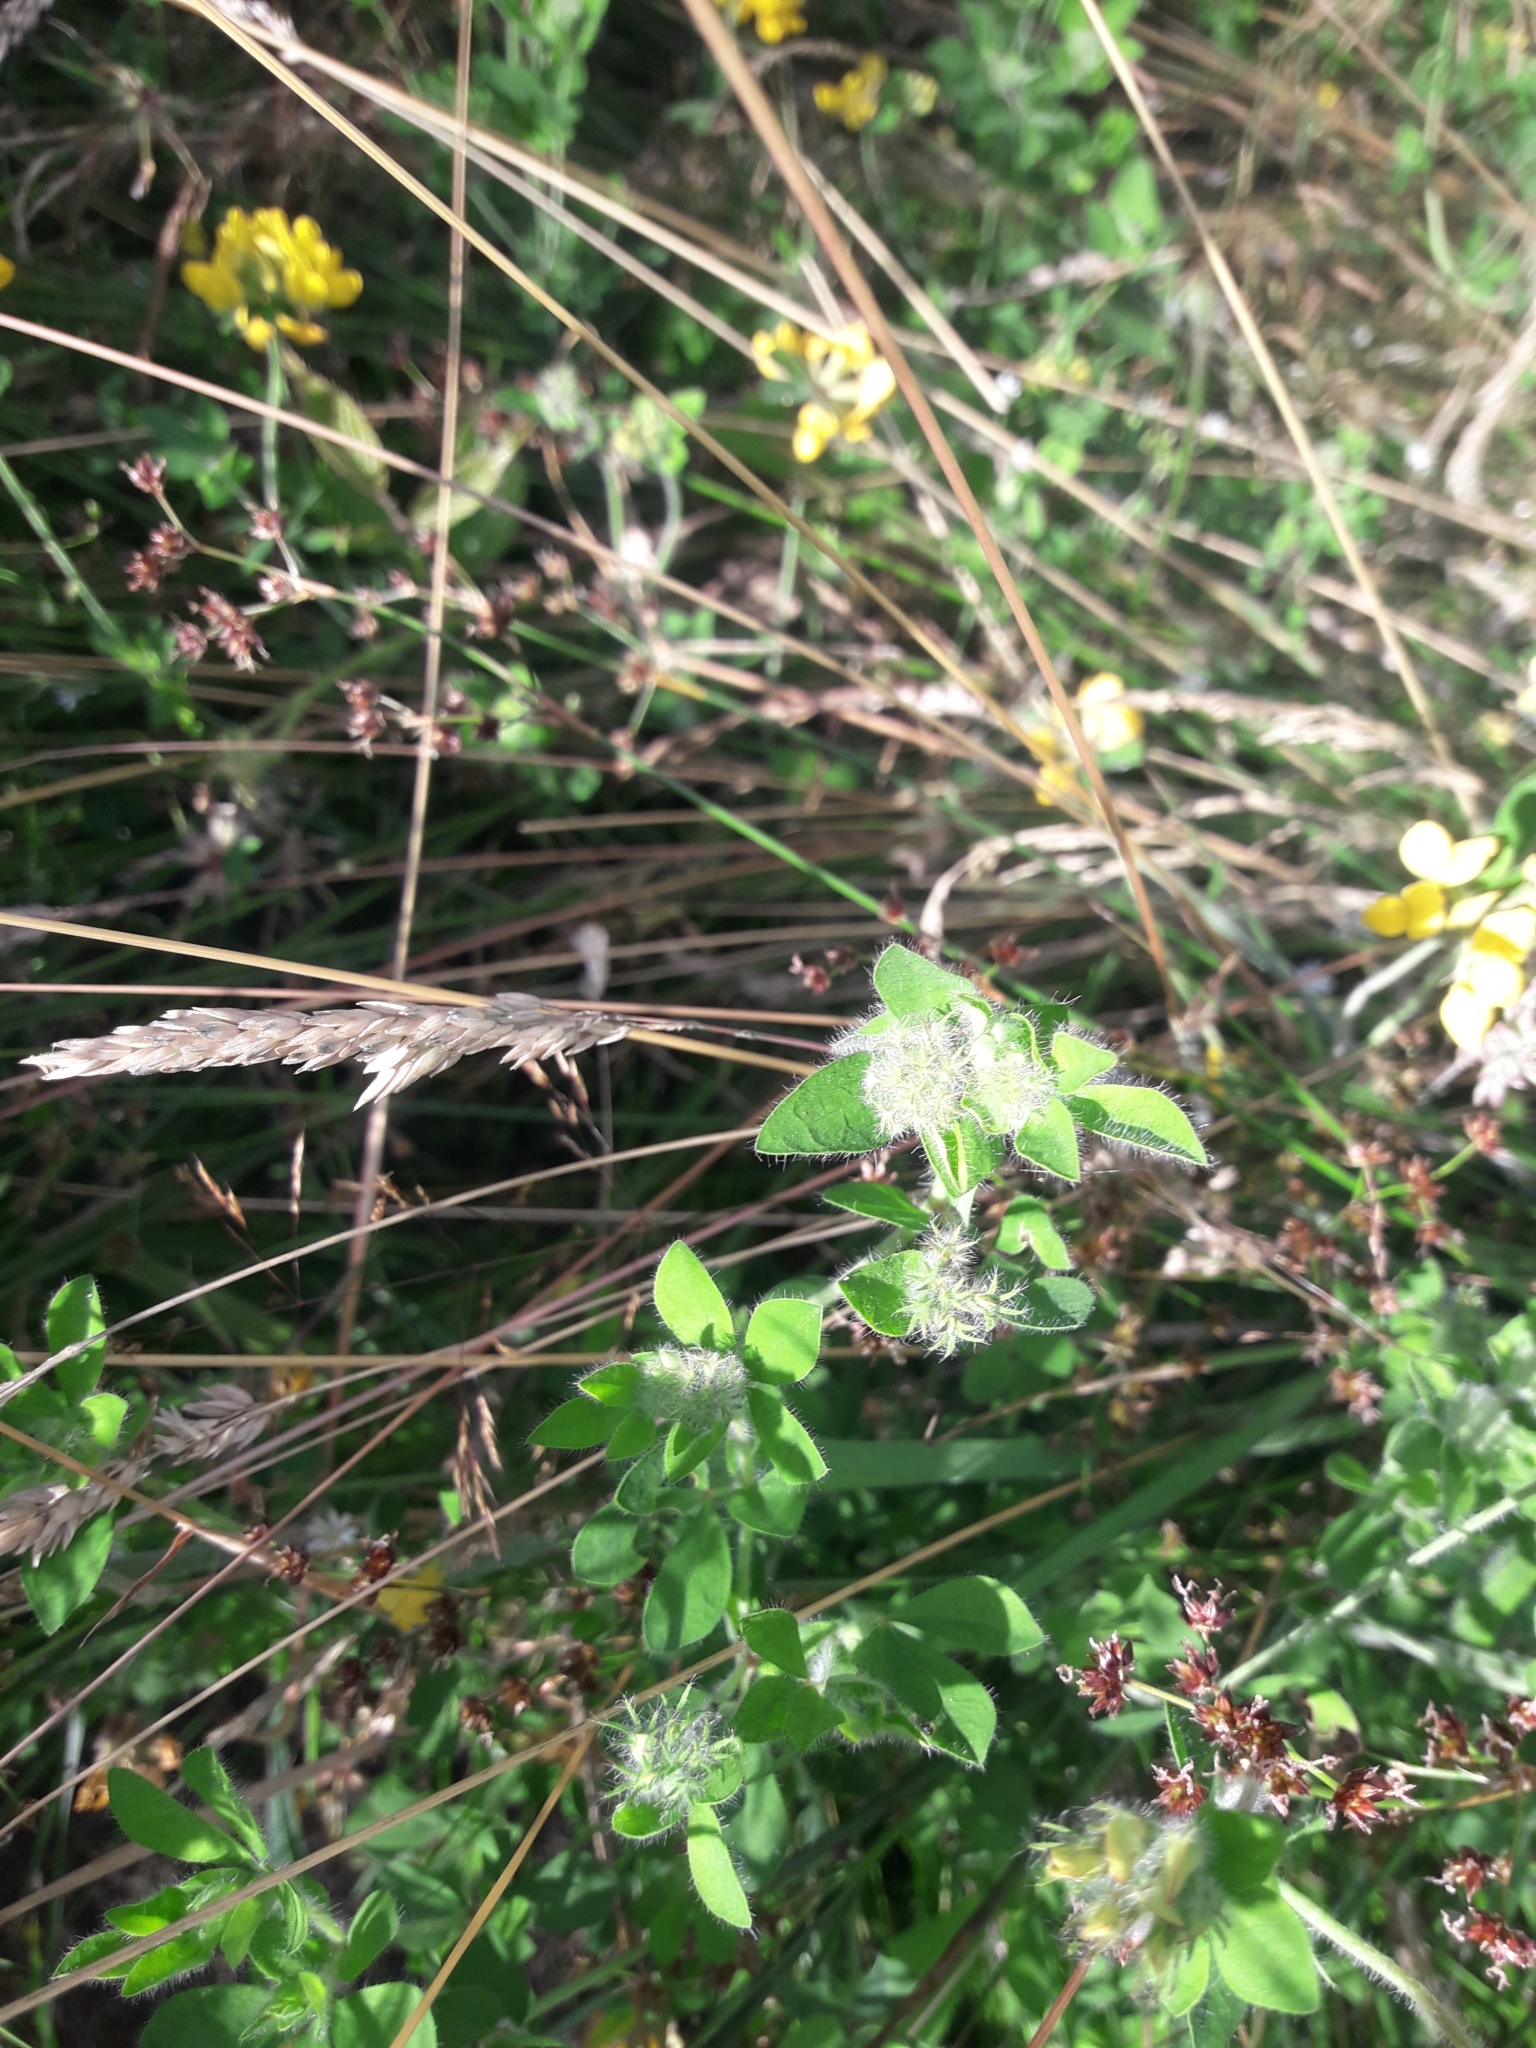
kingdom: Plantae
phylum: Tracheophyta
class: Magnoliopsida
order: Fabales
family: Fabaceae
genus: Lotus
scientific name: Lotus pedunculatus
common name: Greater birdsfoot-trefoil
